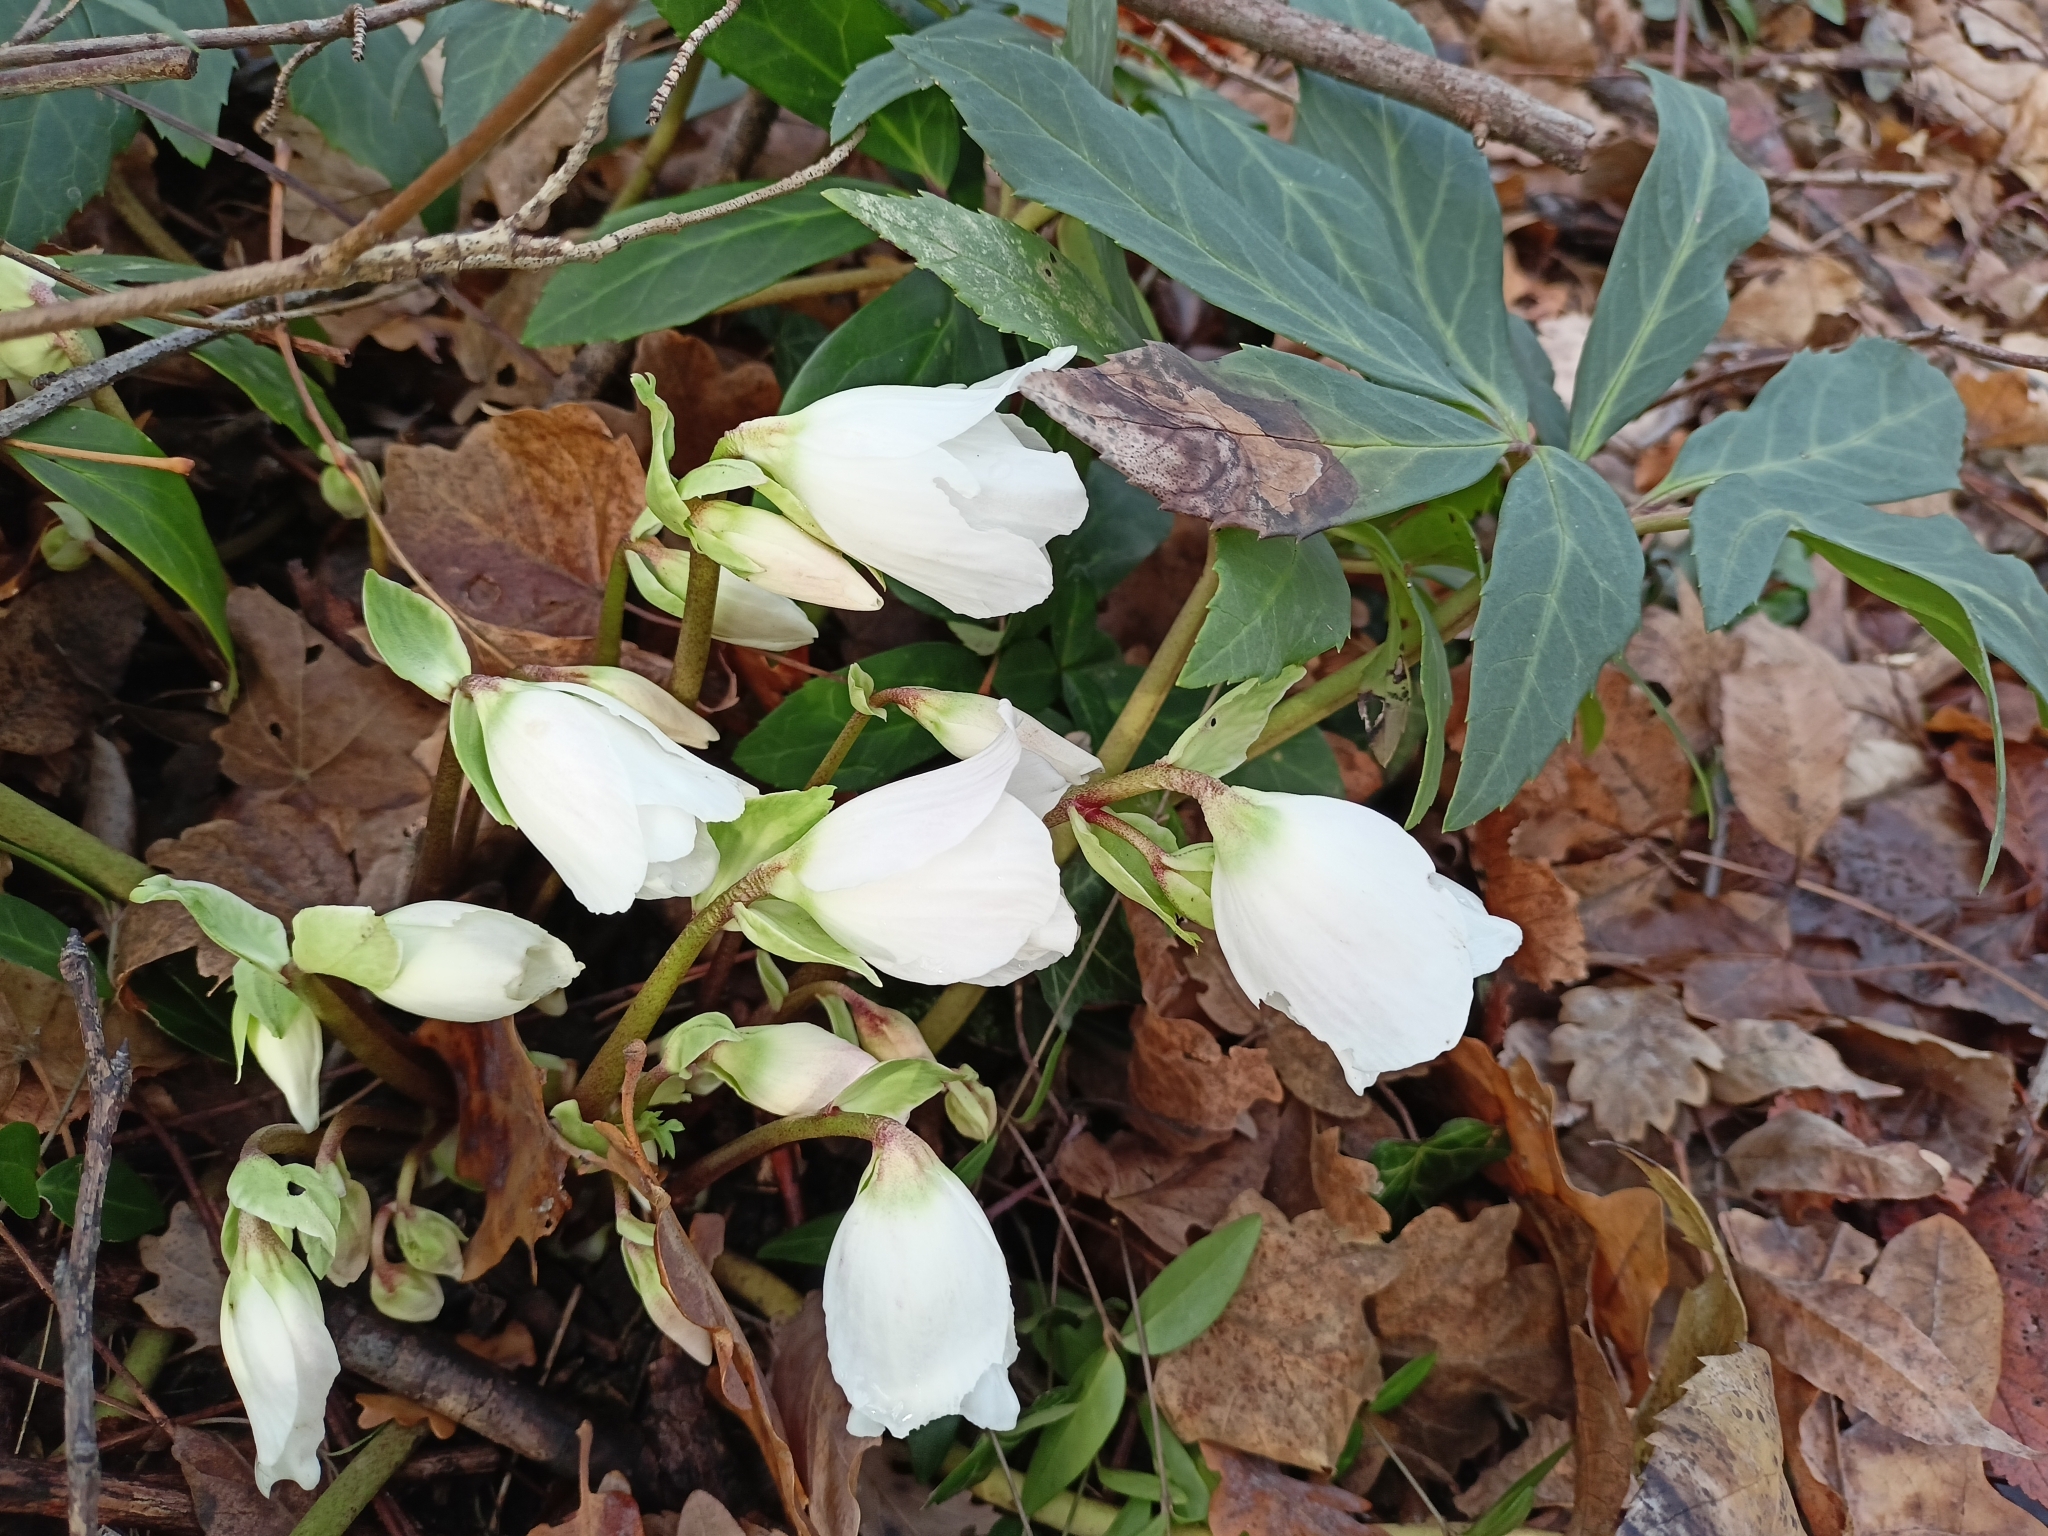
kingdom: Plantae
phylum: Tracheophyta
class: Magnoliopsida
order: Ranunculales
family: Ranunculaceae
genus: Helleborus
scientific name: Helleborus niger
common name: Black hellebore
